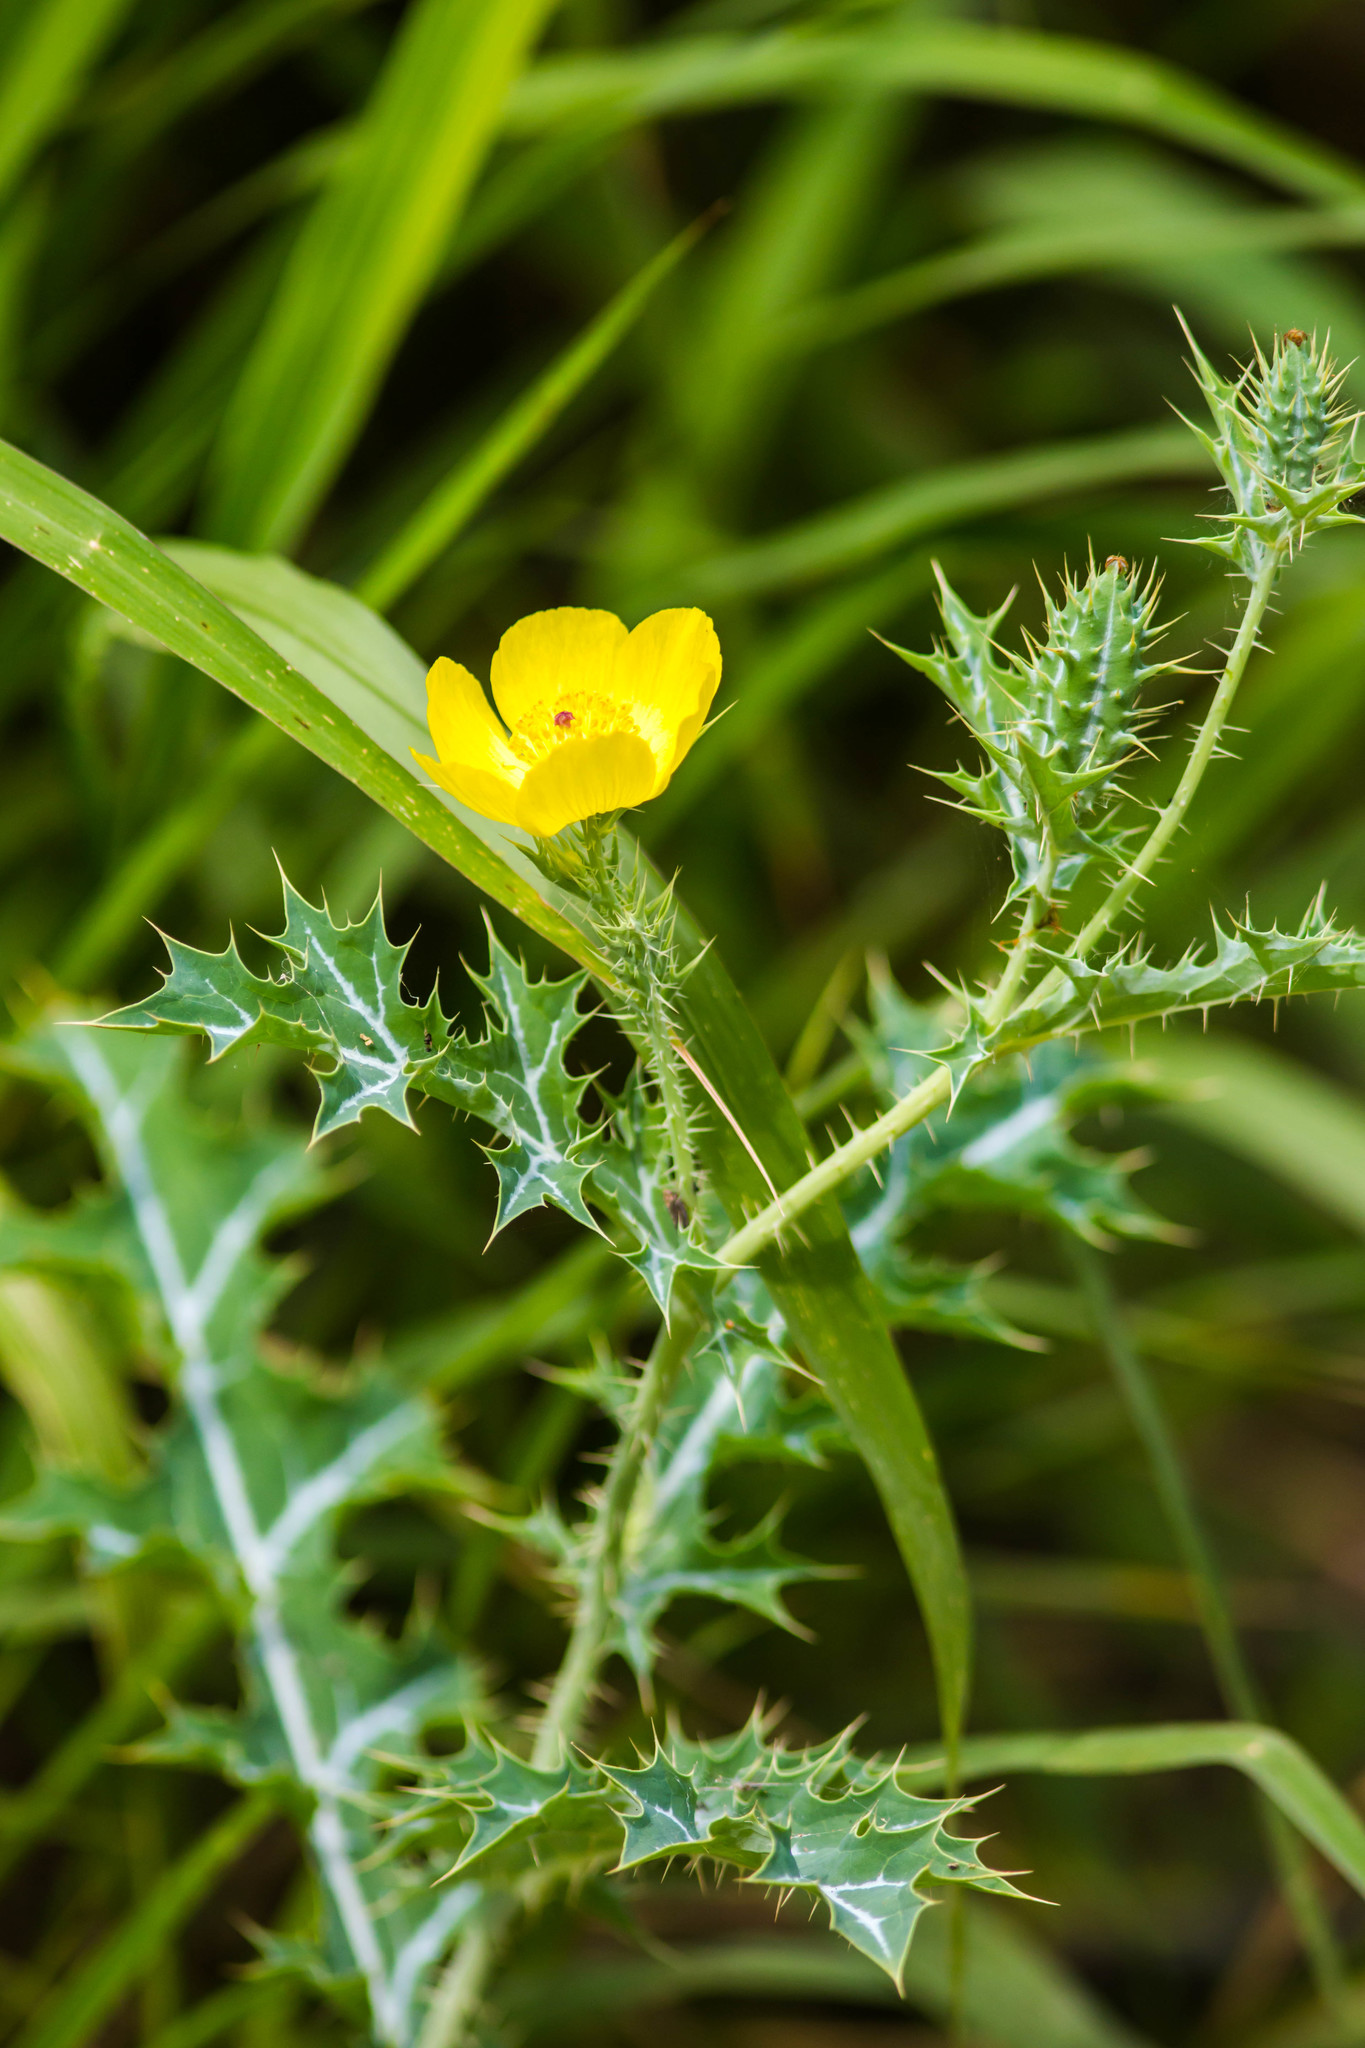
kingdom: Plantae
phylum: Tracheophyta
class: Magnoliopsida
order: Ranunculales
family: Papaveraceae
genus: Argemone
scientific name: Argemone mexicana
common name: Mexican poppy
